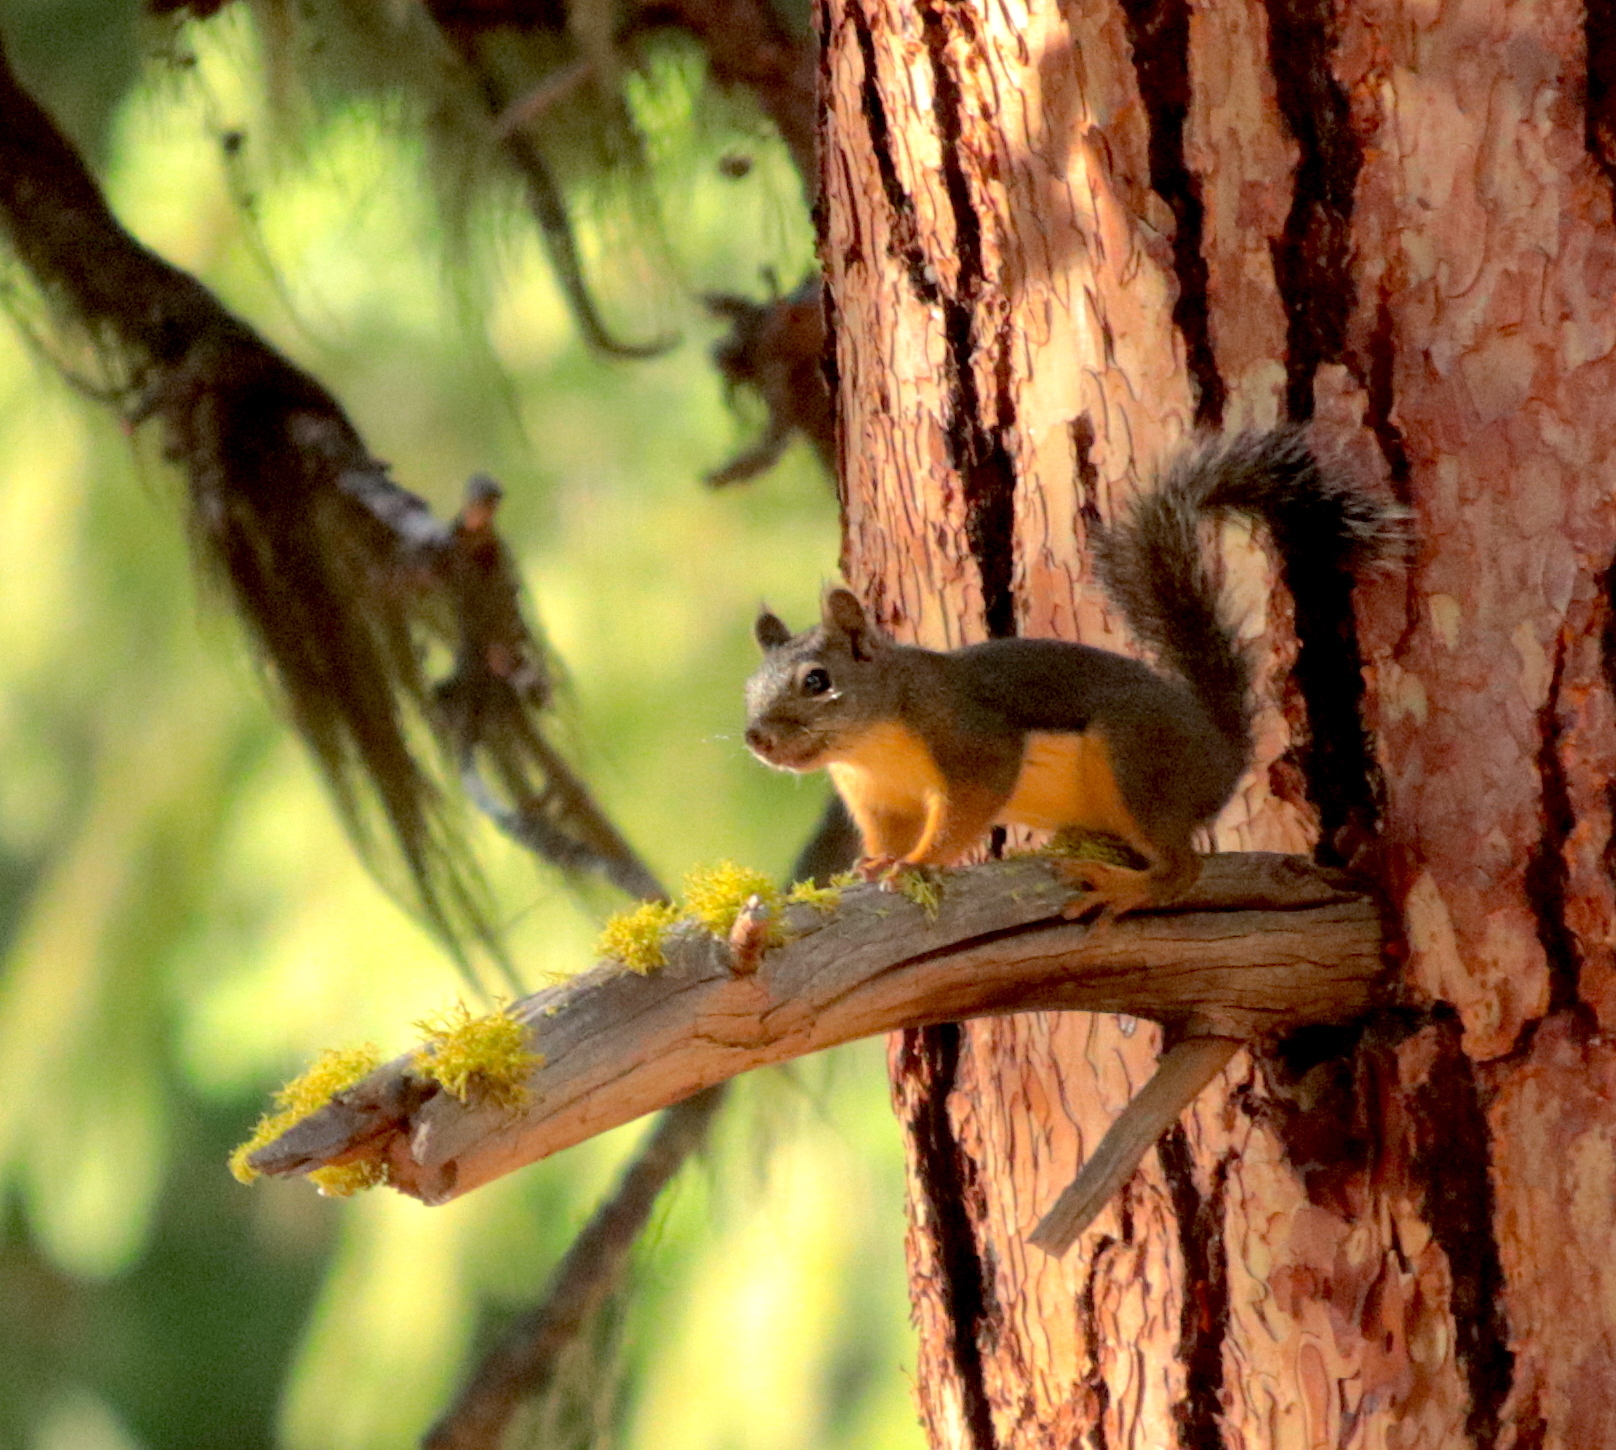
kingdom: Animalia
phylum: Chordata
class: Mammalia
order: Rodentia
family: Sciuridae
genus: Tamiasciurus
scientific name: Tamiasciurus douglasii
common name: Douglas's squirrel
